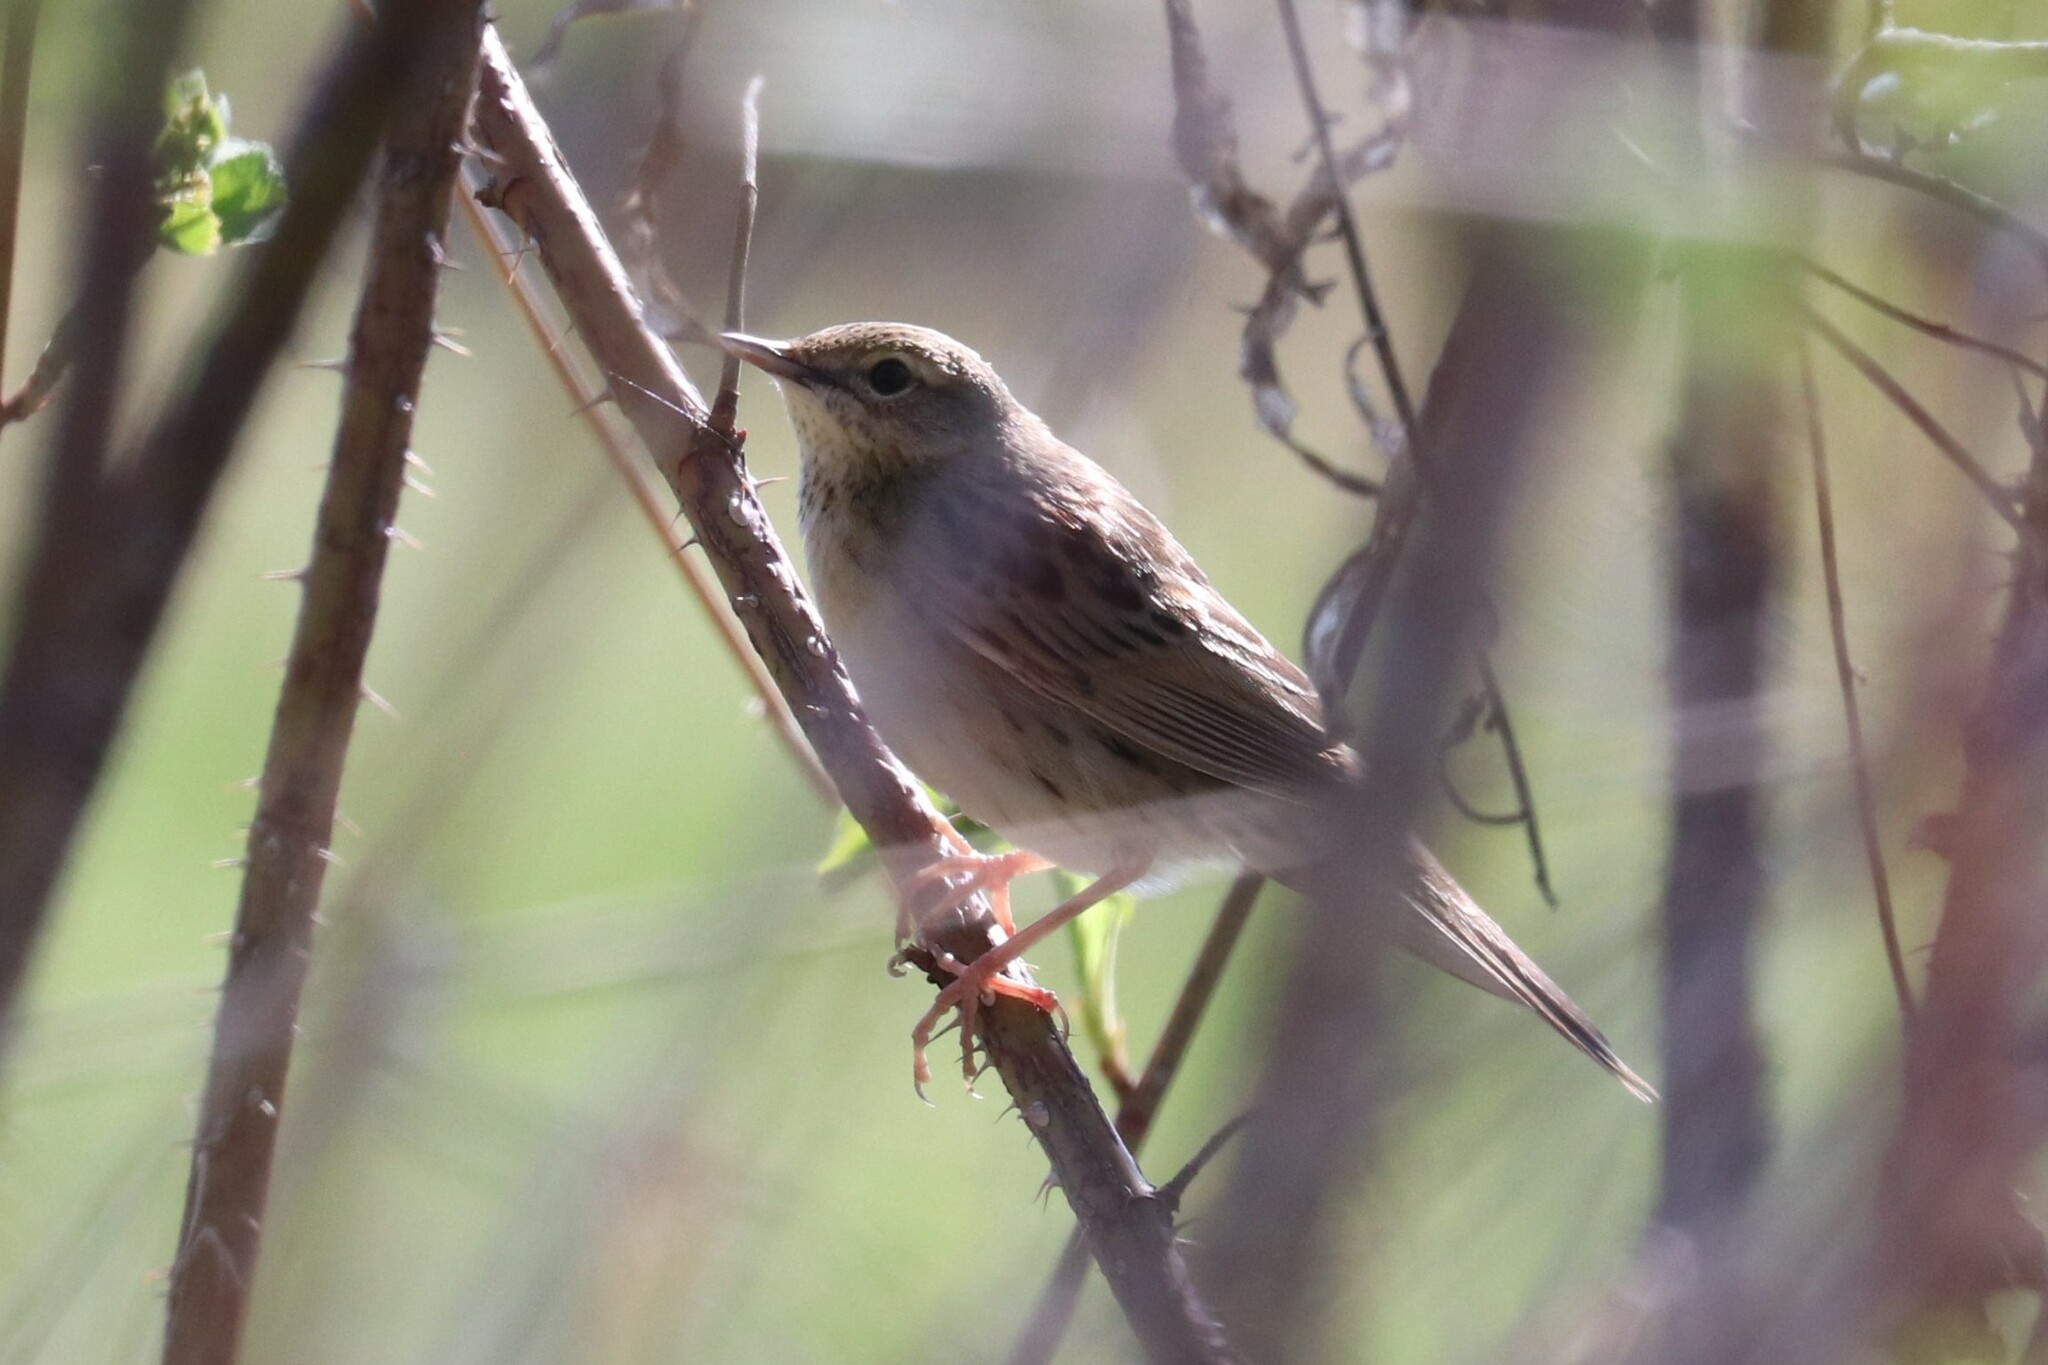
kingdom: Animalia
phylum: Chordata
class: Aves
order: Passeriformes
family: Locustellidae
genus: Locustella
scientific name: Locustella naevia
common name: Common grasshopper warbler
